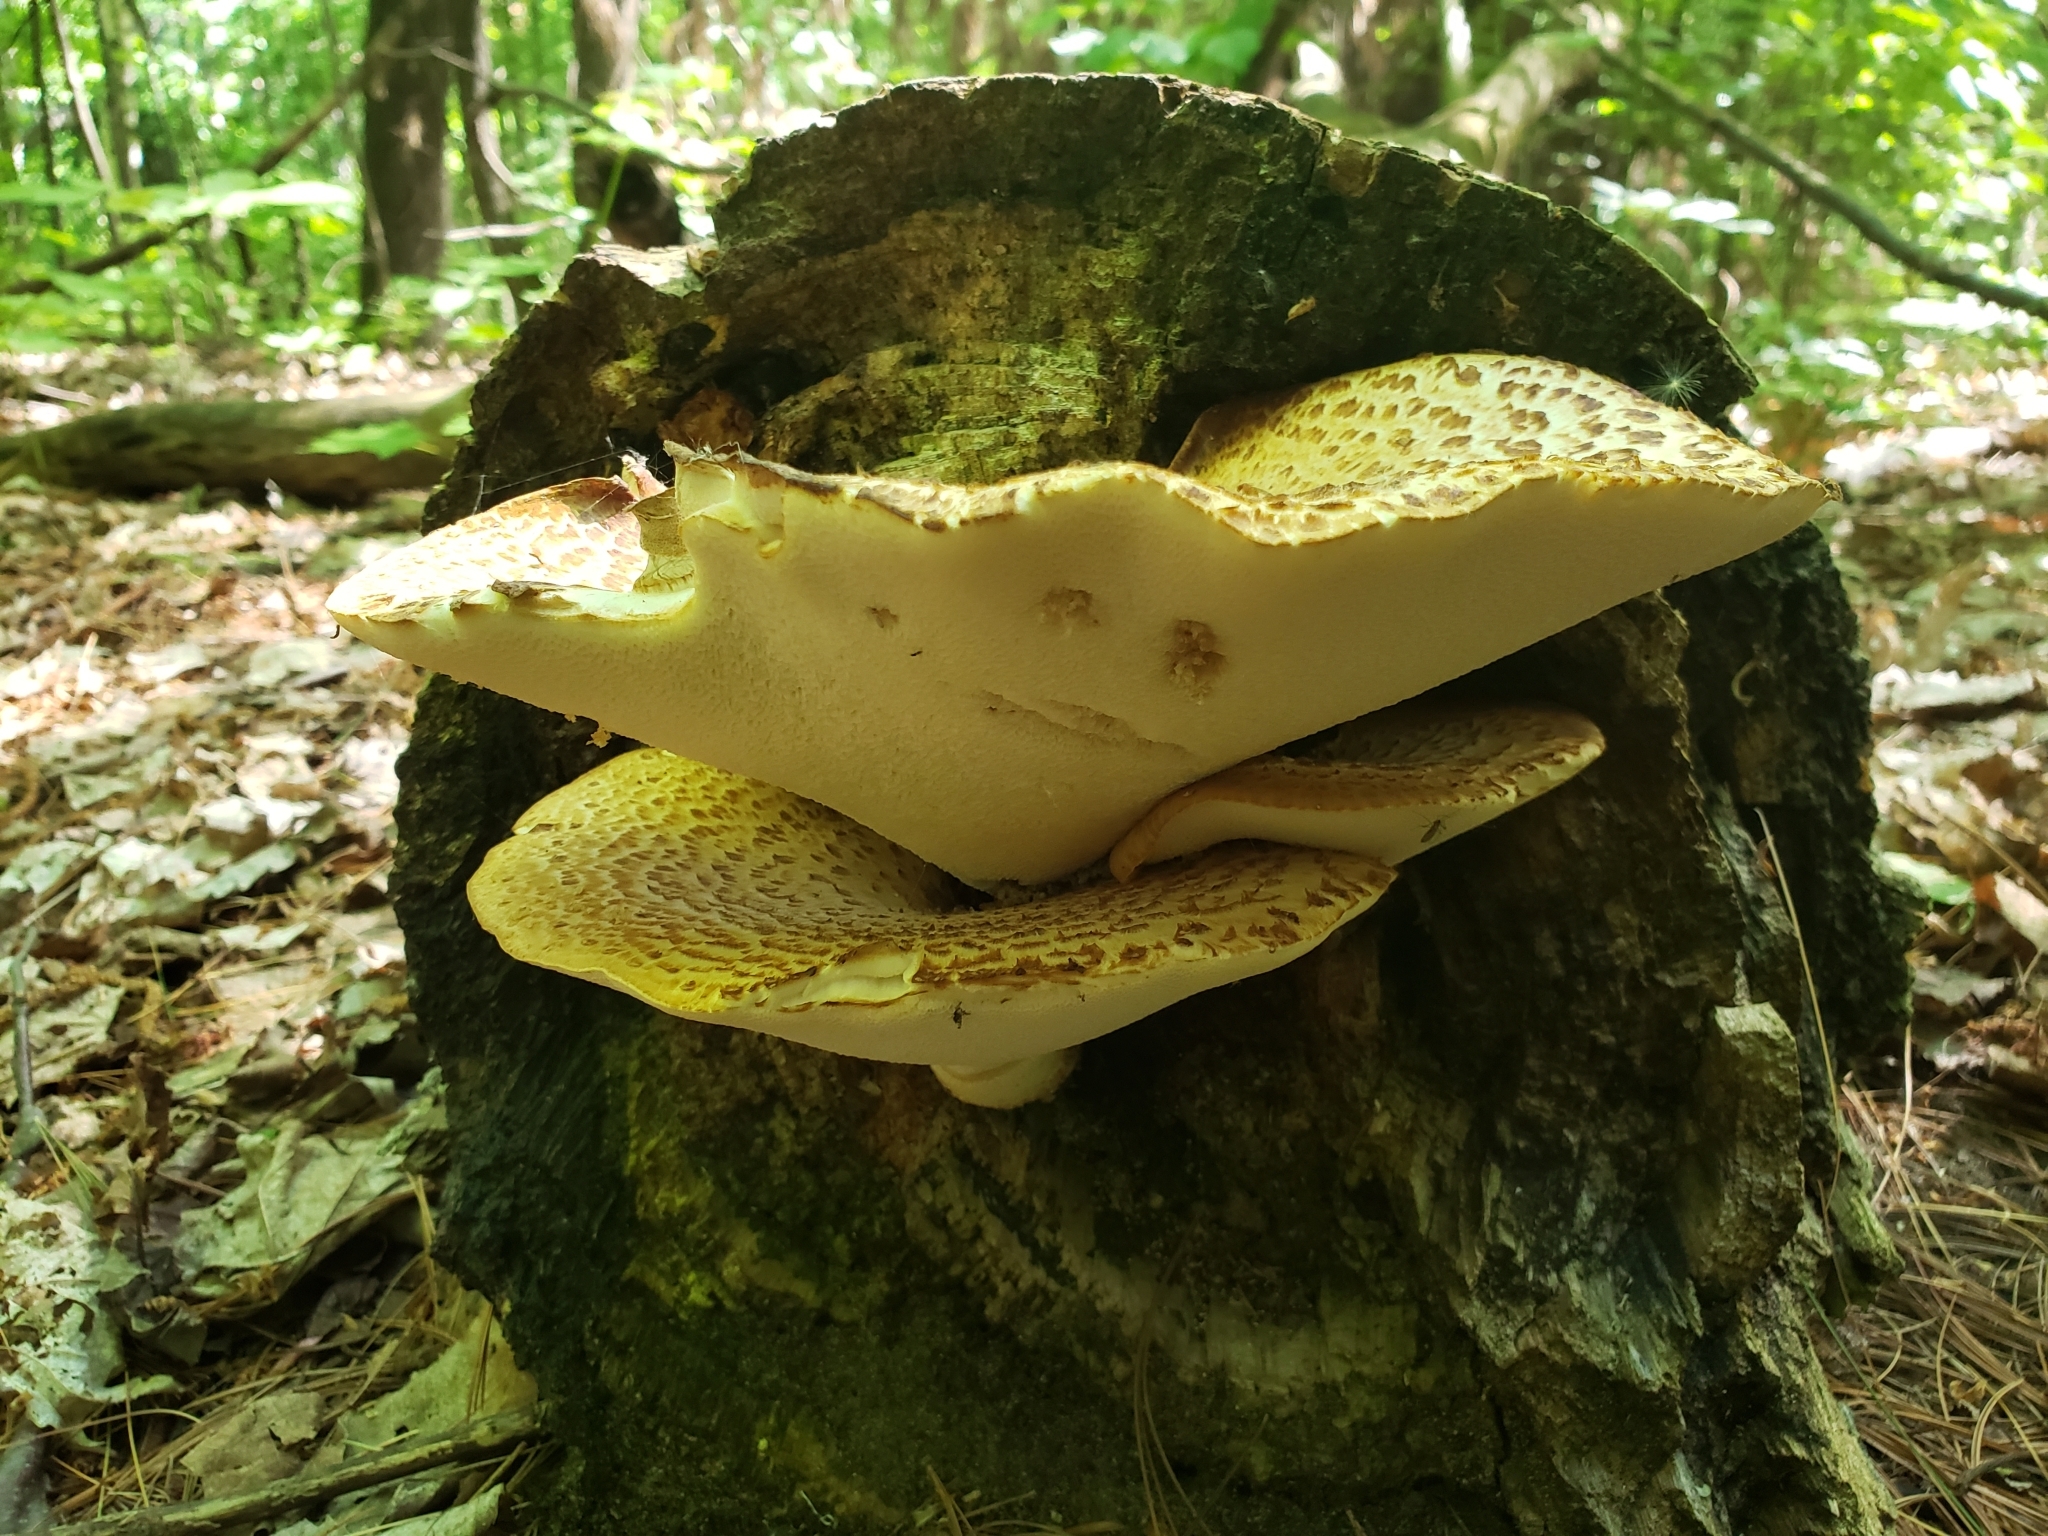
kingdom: Fungi
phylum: Basidiomycota
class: Agaricomycetes
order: Polyporales
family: Polyporaceae
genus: Cerioporus
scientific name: Cerioporus squamosus
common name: Dryad's saddle
